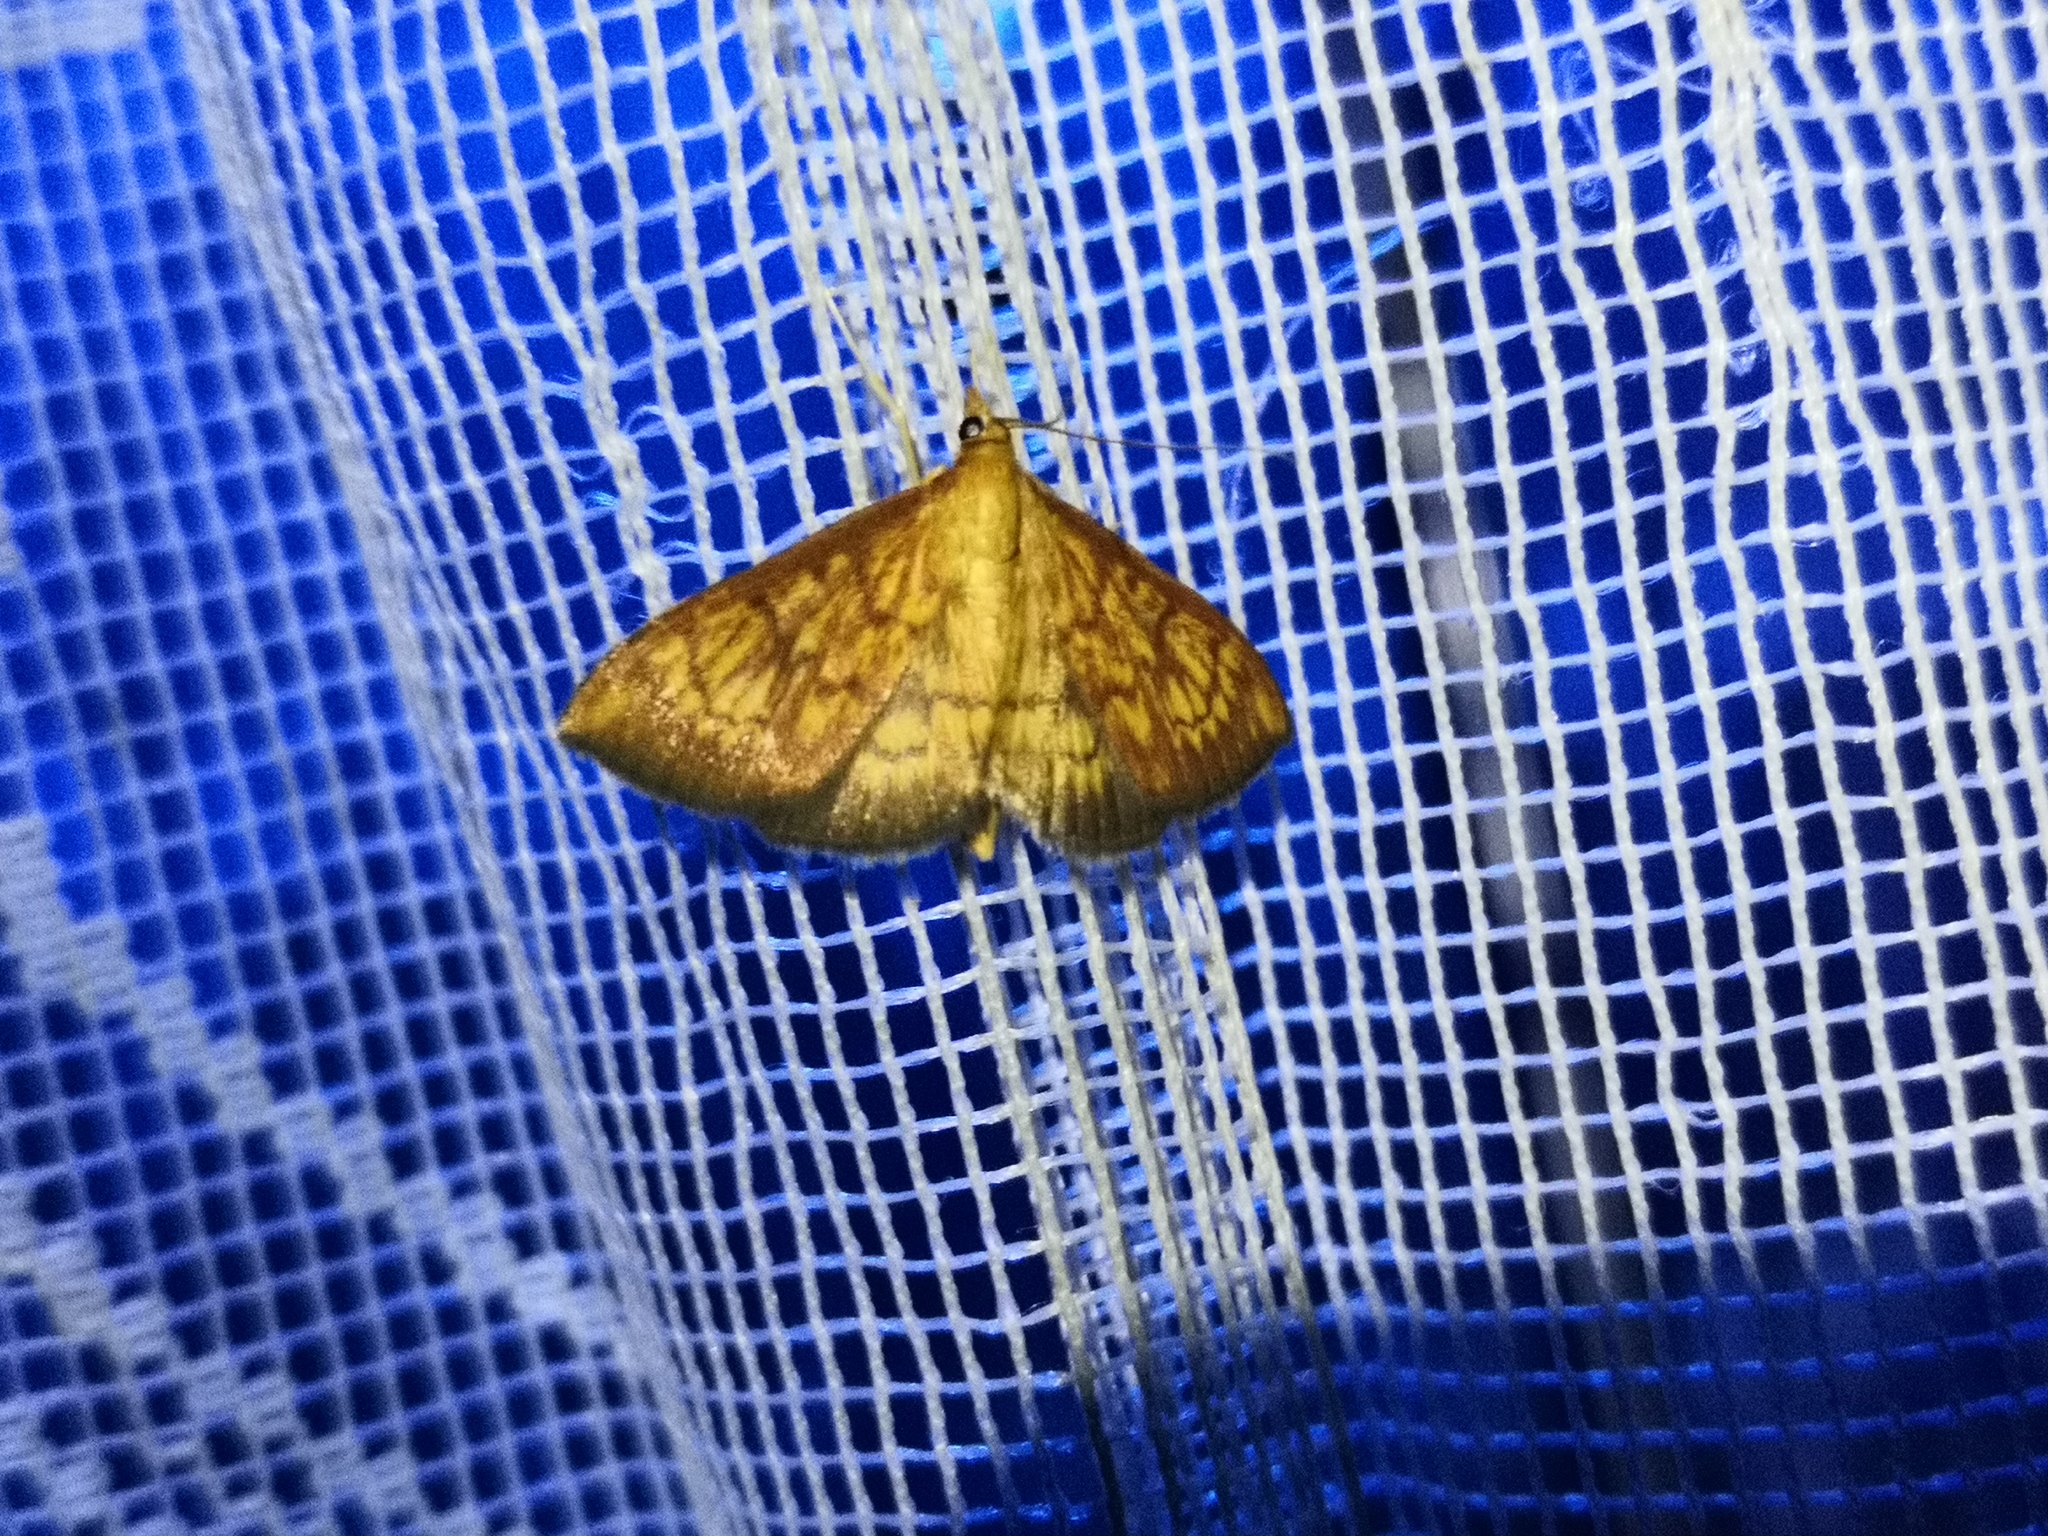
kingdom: Animalia
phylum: Arthropoda
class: Insecta
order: Lepidoptera
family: Crambidae
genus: Ecpyrrhorrhoe
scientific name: Ecpyrrhorrhoe rubiginalis
